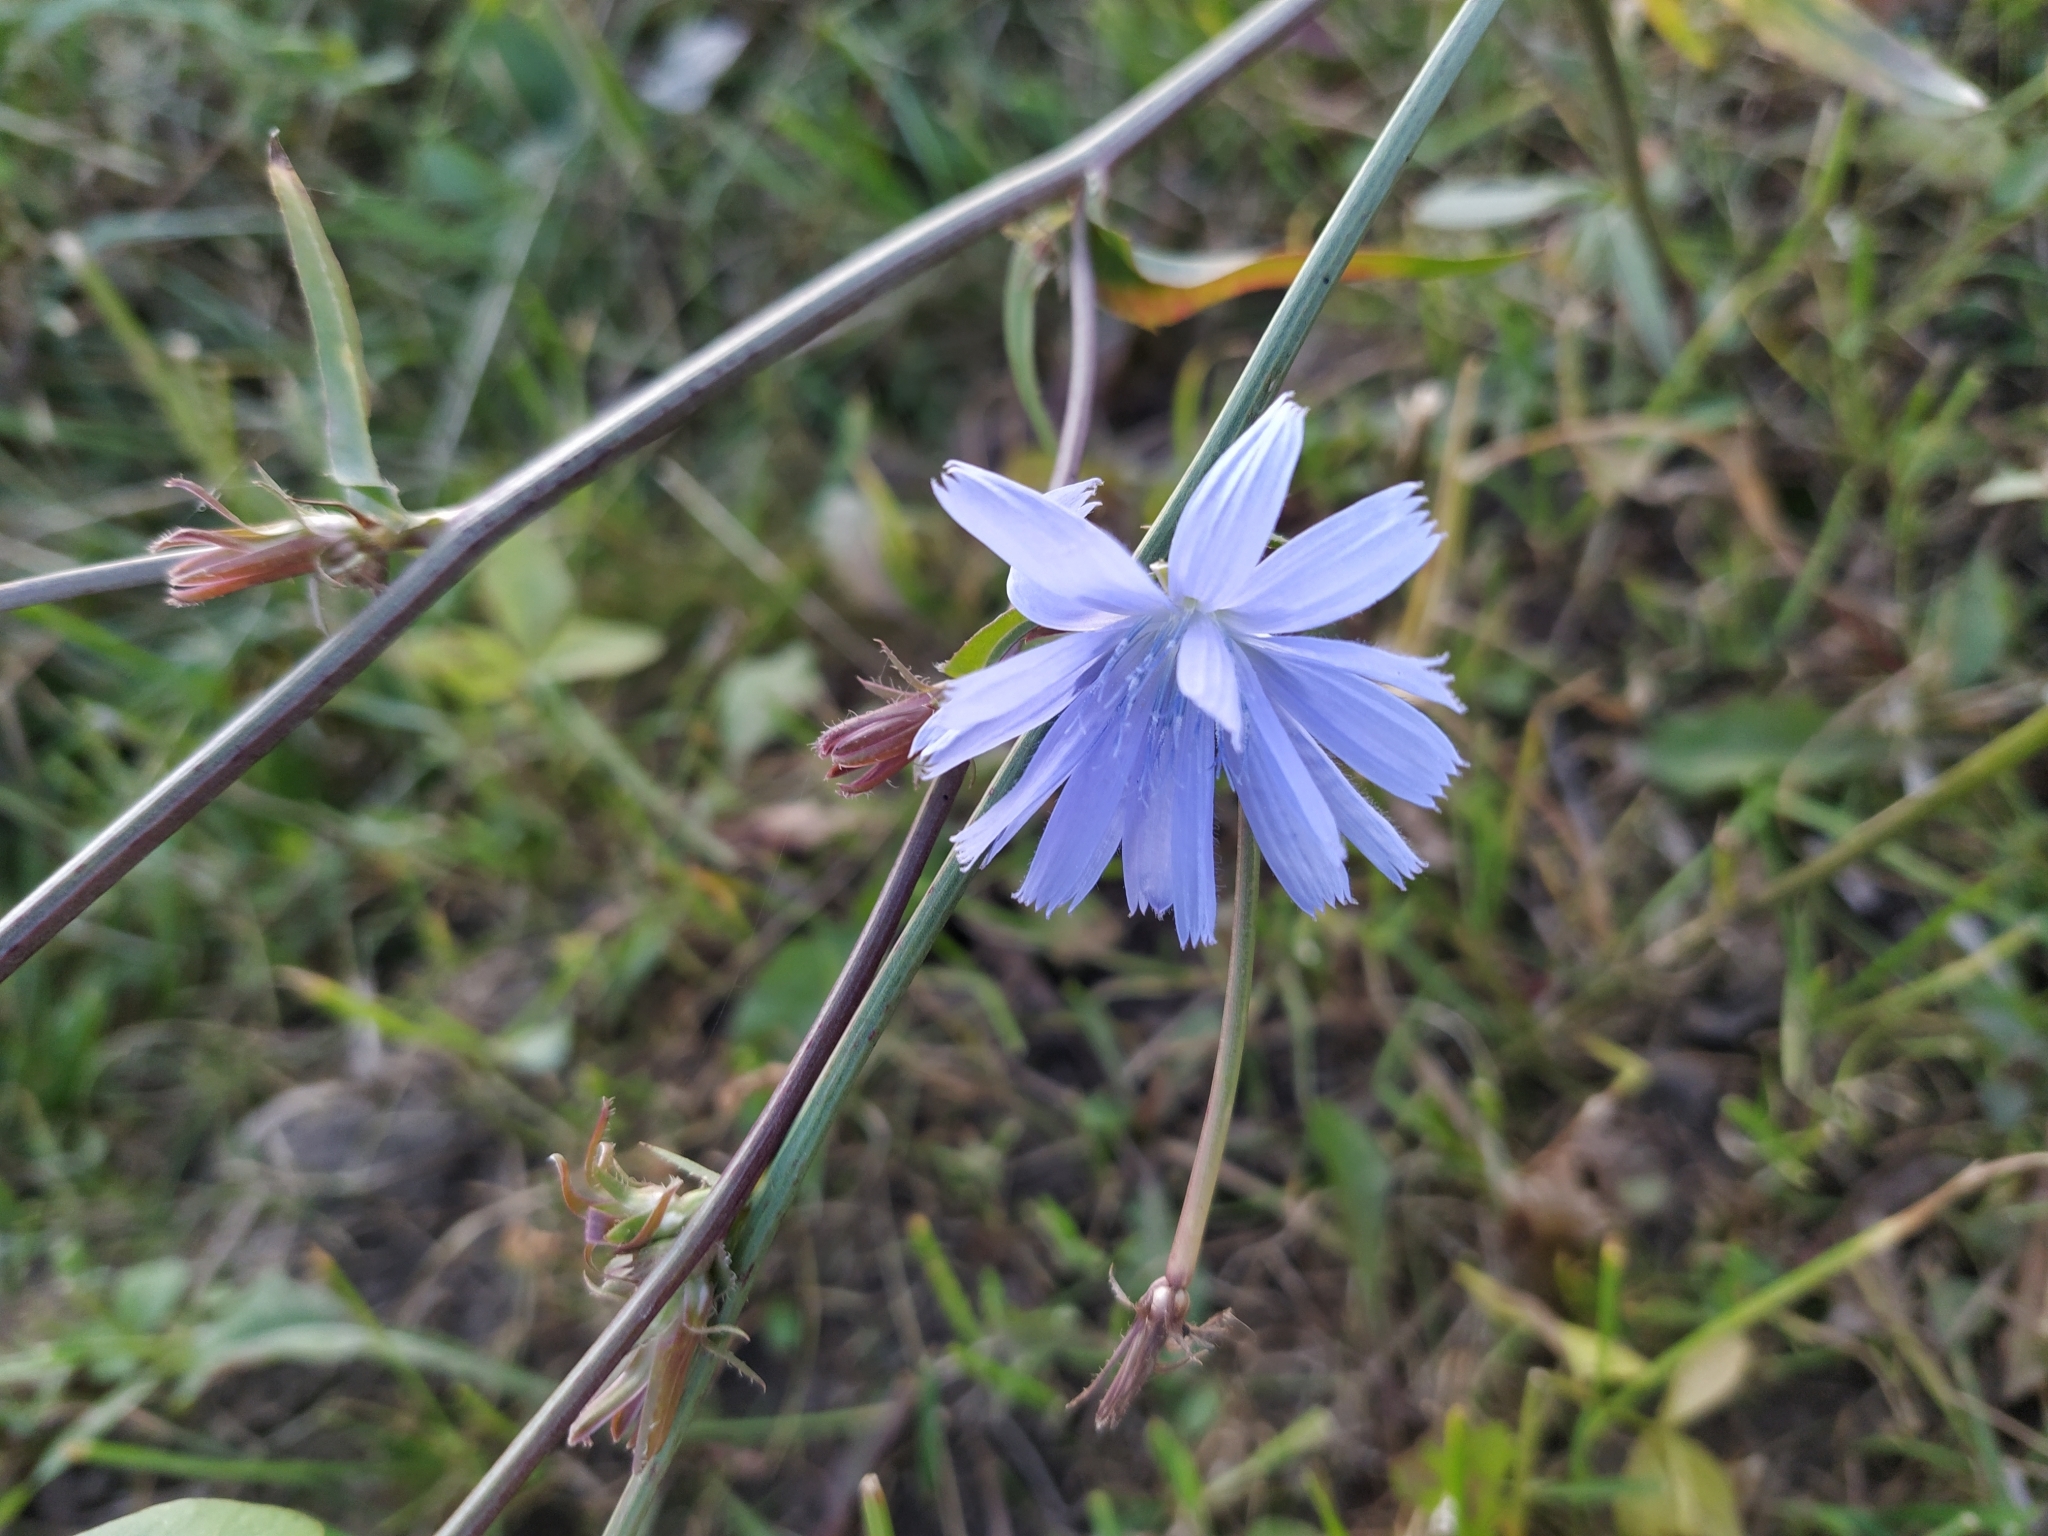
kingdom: Plantae
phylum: Tracheophyta
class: Magnoliopsida
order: Asterales
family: Asteraceae
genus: Cichorium
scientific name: Cichorium intybus
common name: Chicory
